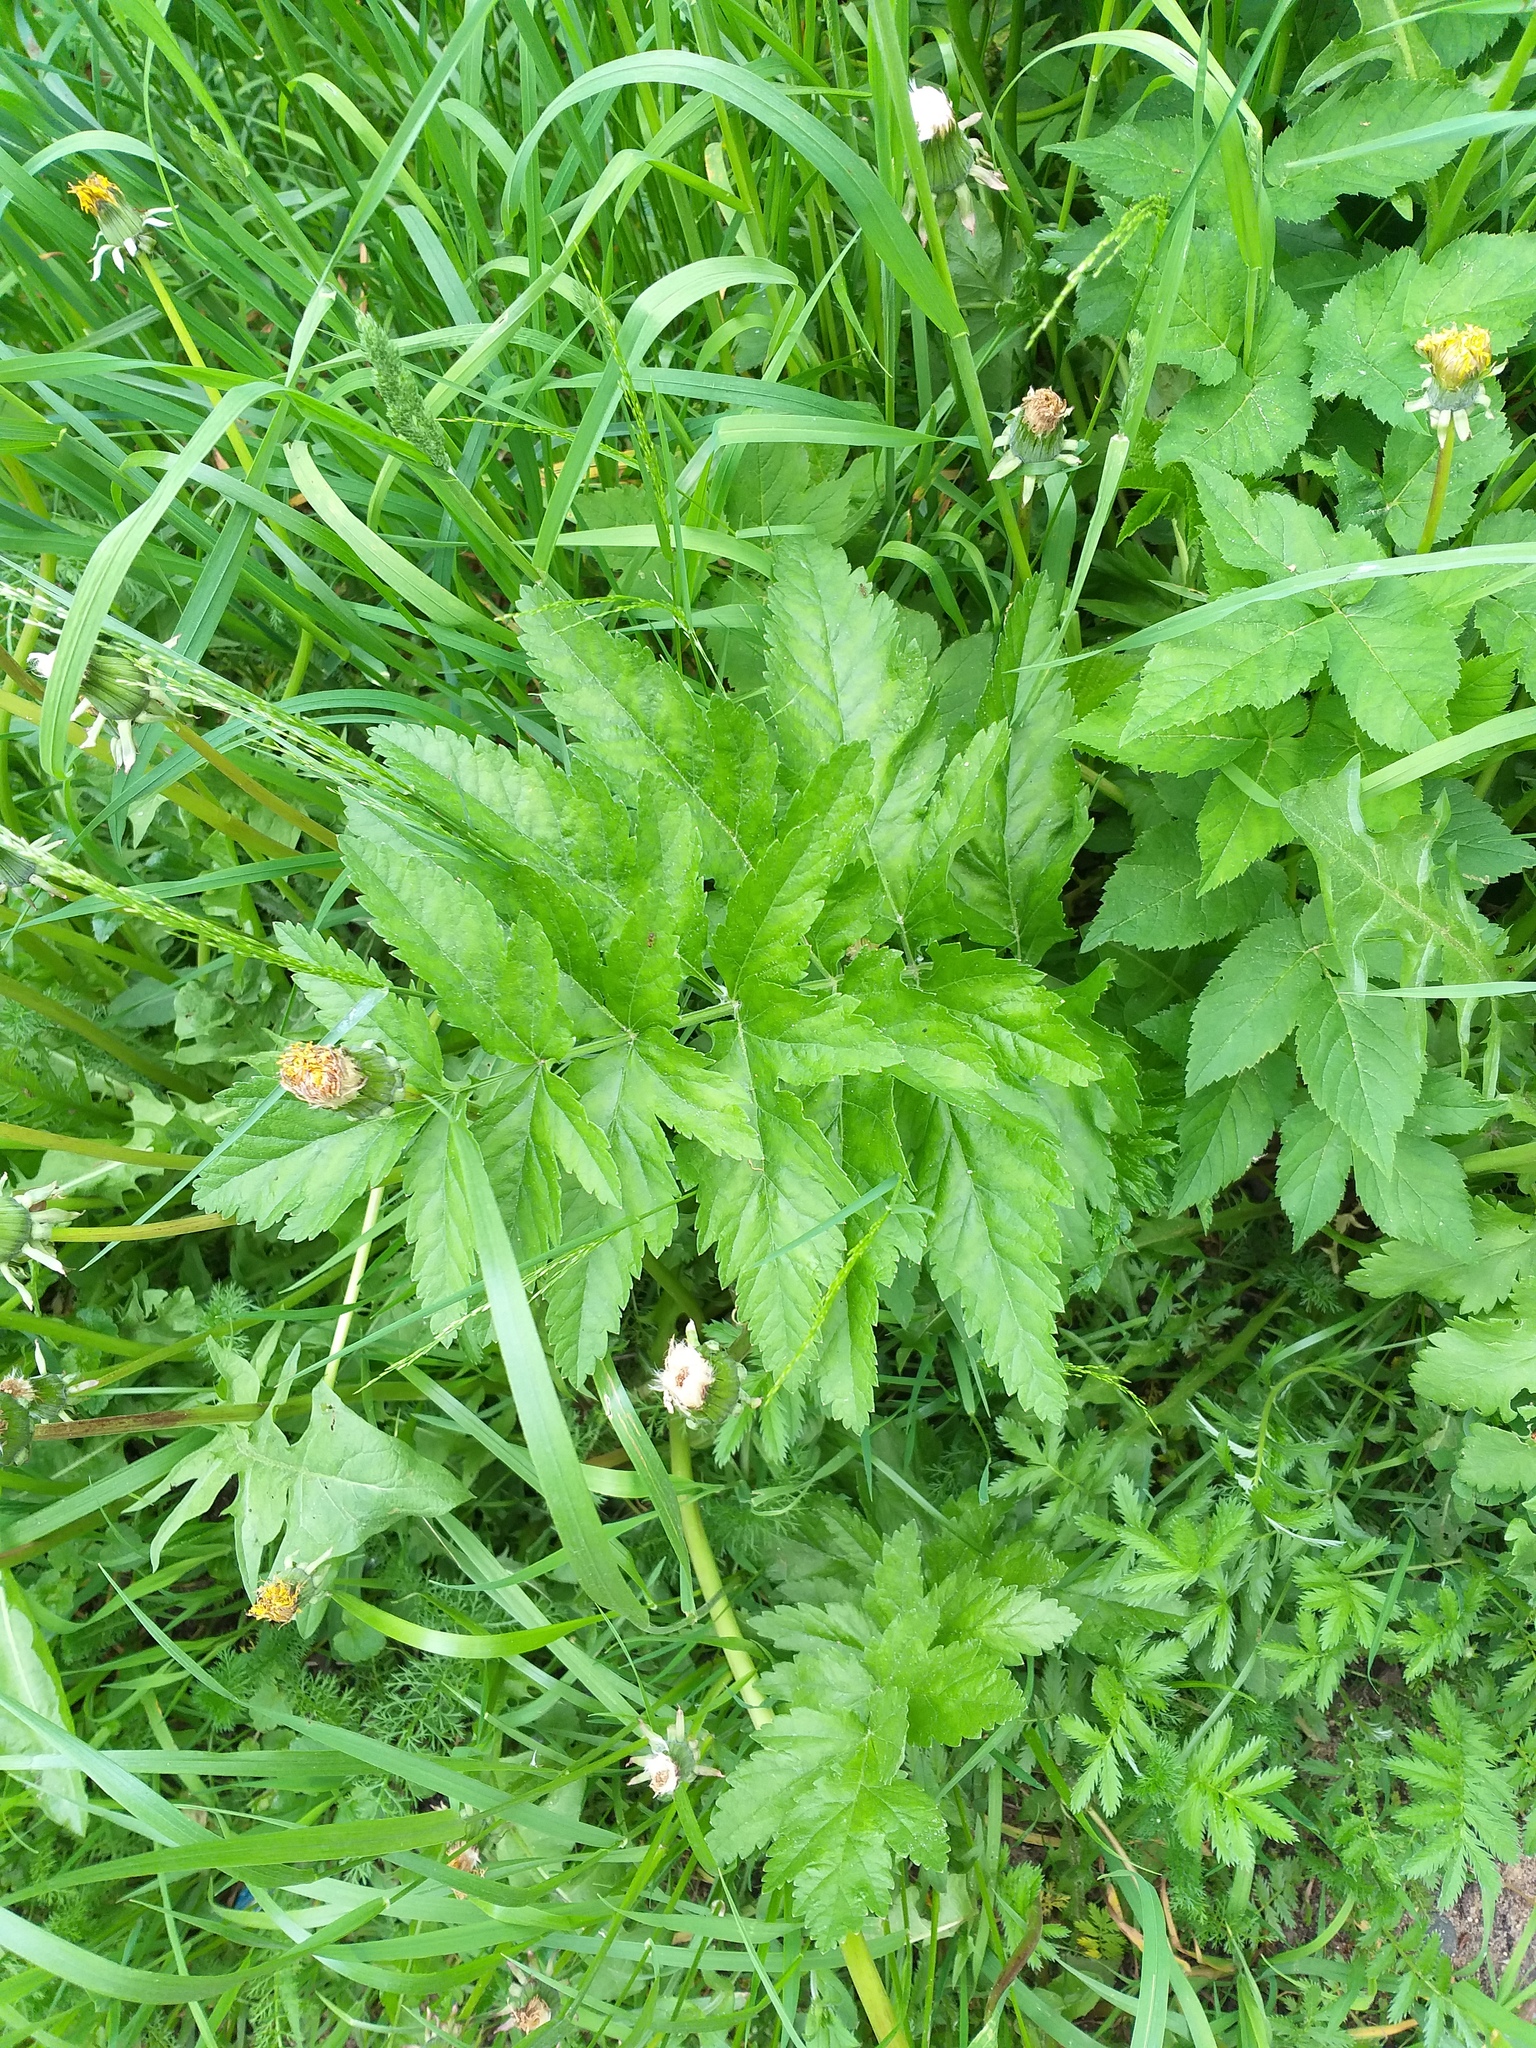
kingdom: Plantae
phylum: Tracheophyta
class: Magnoliopsida
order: Apiales
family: Apiaceae
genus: Pastinaca
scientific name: Pastinaca sativa
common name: Wild parsnip
